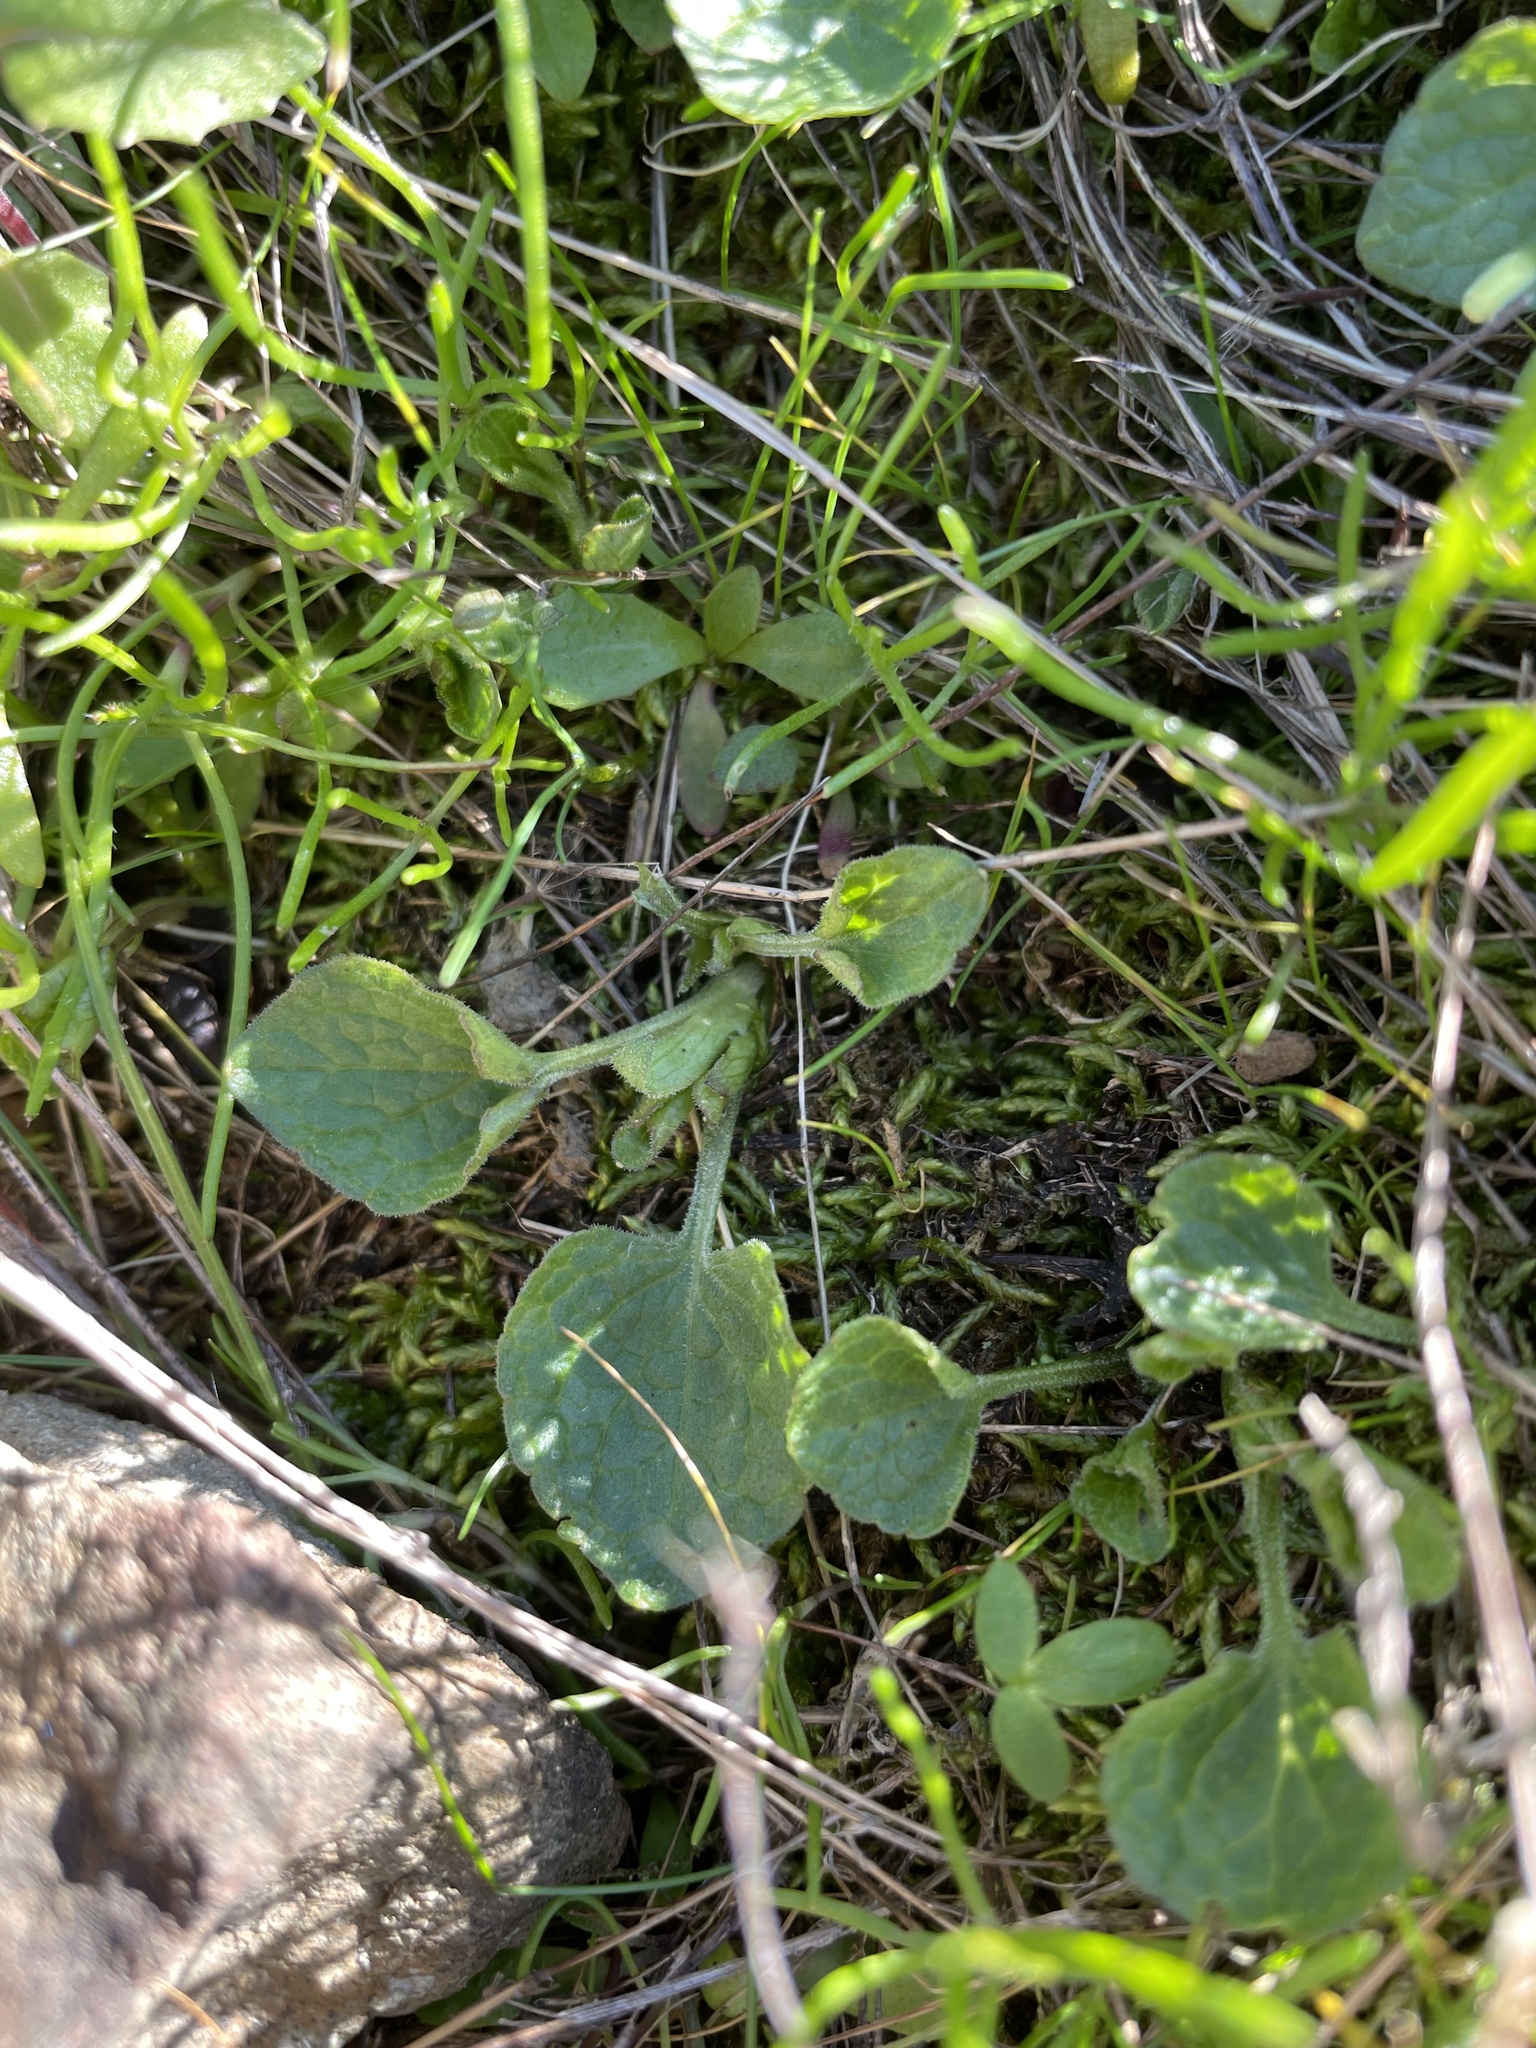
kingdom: Plantae
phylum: Tracheophyta
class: Magnoliopsida
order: Malpighiales
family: Violaceae
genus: Viola
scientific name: Viola pedunculata
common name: California golden violet
